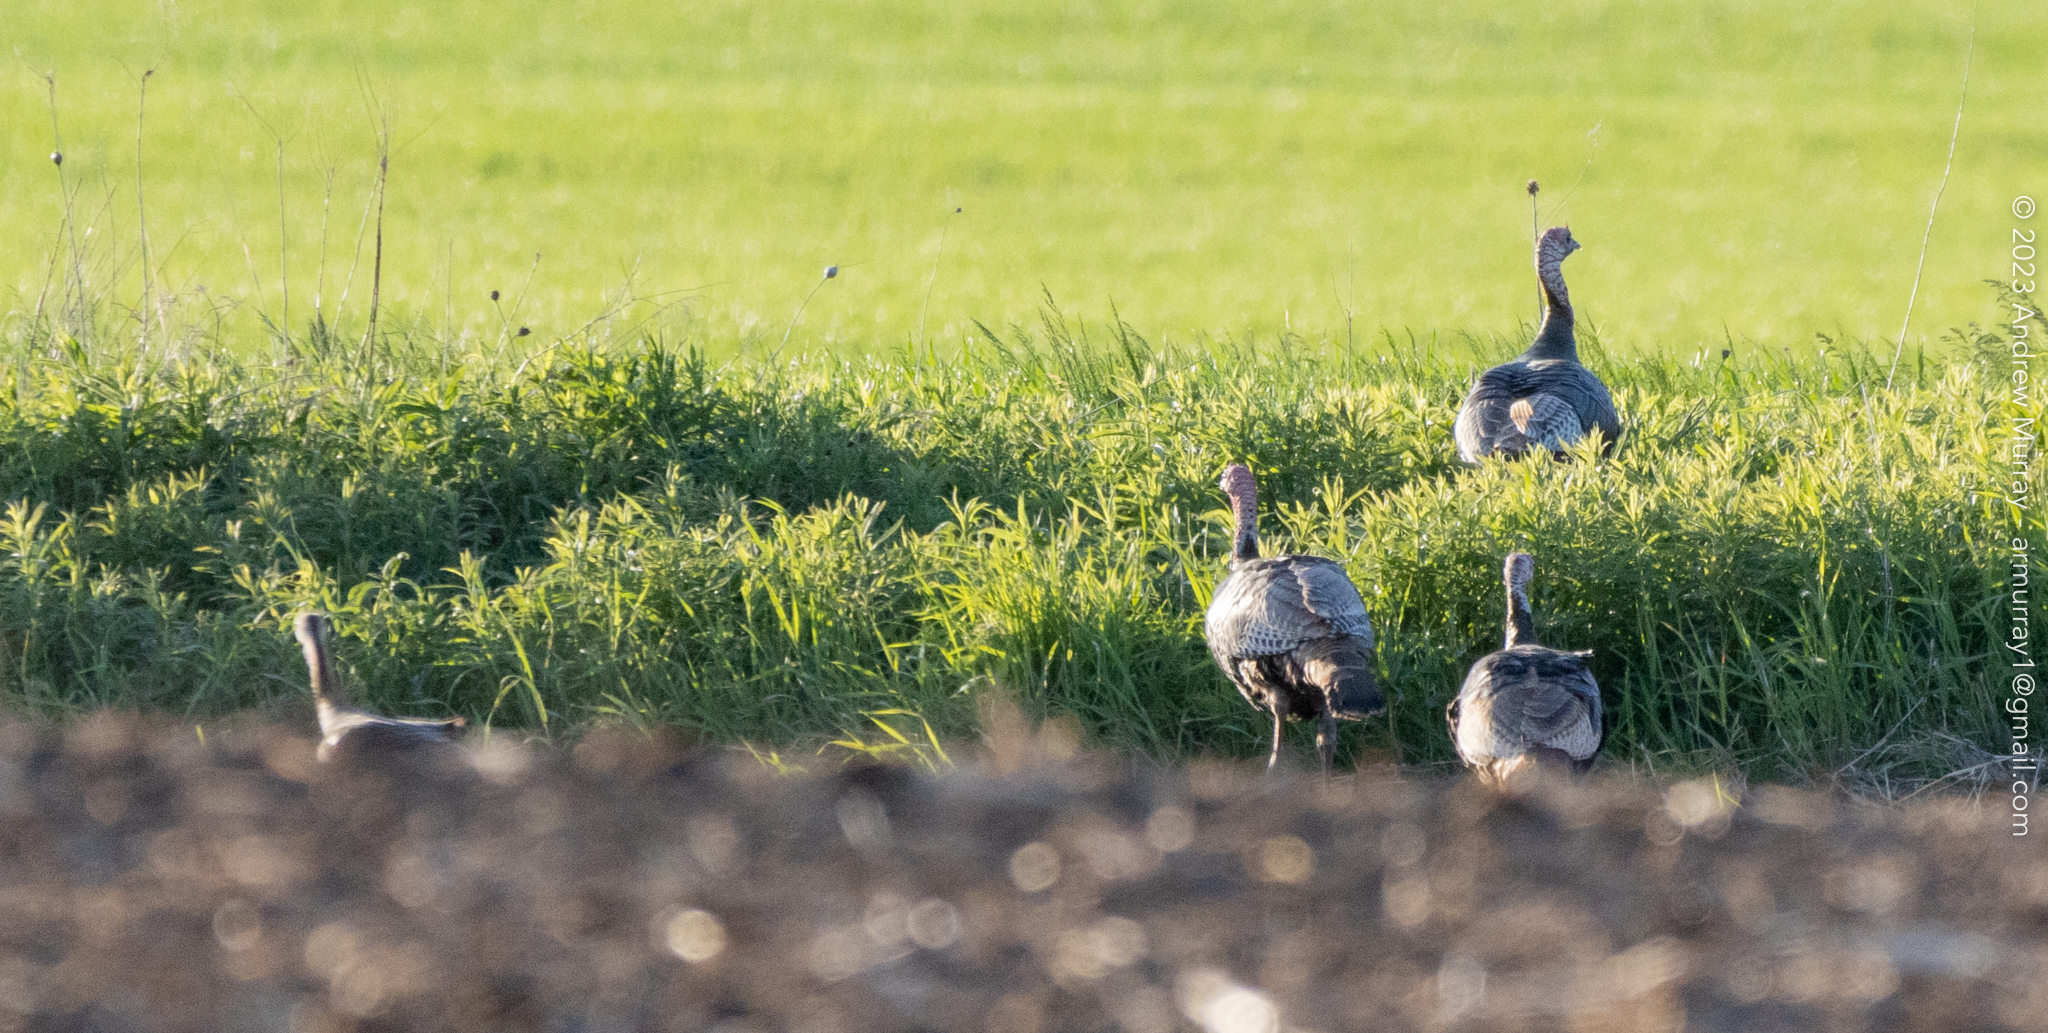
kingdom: Animalia
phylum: Chordata
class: Aves
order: Galliformes
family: Phasianidae
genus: Meleagris
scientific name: Meleagris gallopavo
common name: Wild turkey
